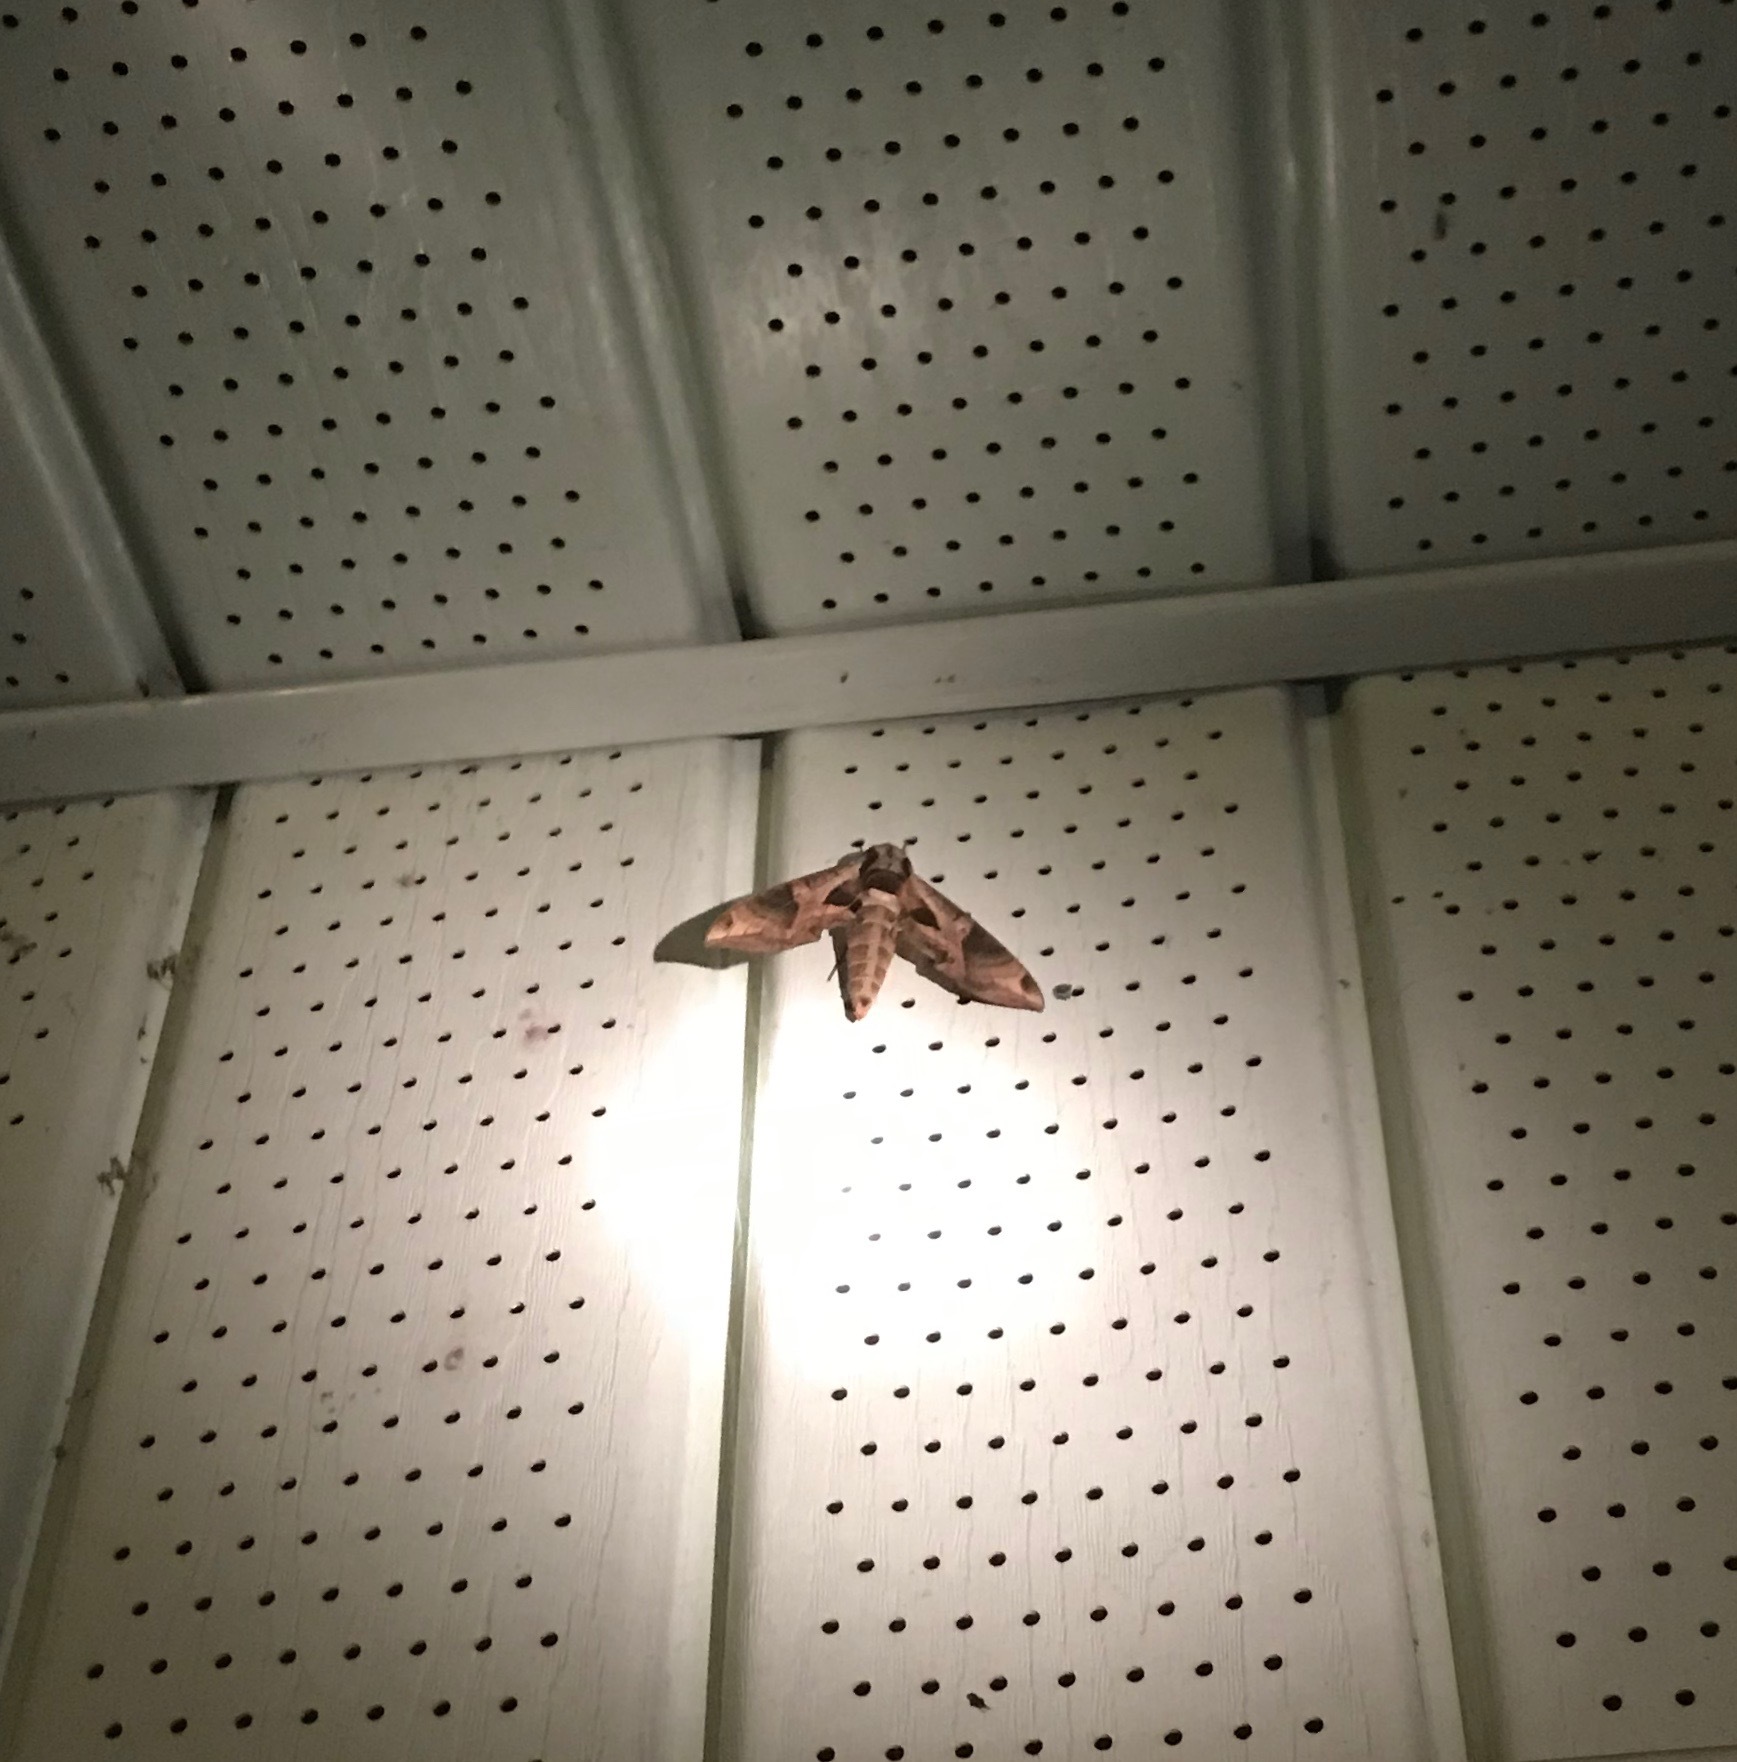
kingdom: Animalia
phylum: Arthropoda
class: Insecta
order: Lepidoptera
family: Sphingidae
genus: Eumorpha
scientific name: Eumorpha pandorus
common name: Pandora sphinx
